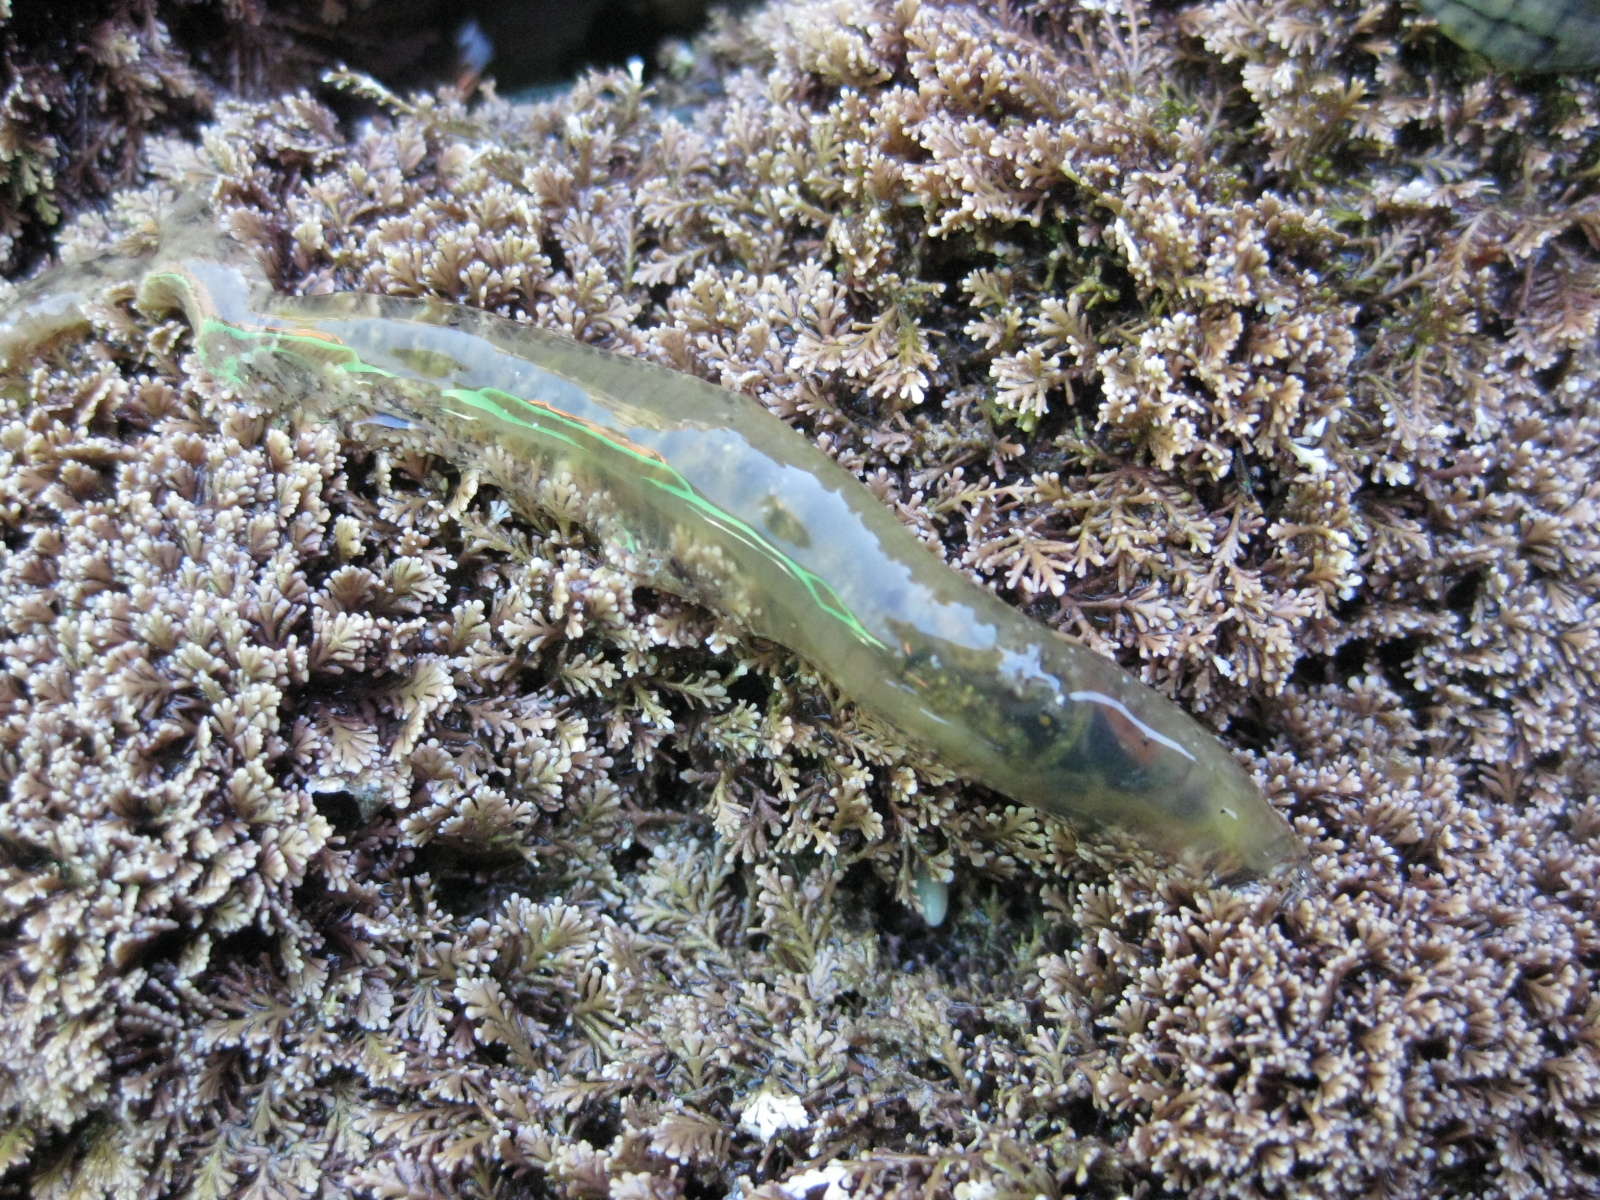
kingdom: Animalia
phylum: Annelida
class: Polychaeta
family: Flabelligeridae
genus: Flabelligera
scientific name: Flabelligera bicolor
